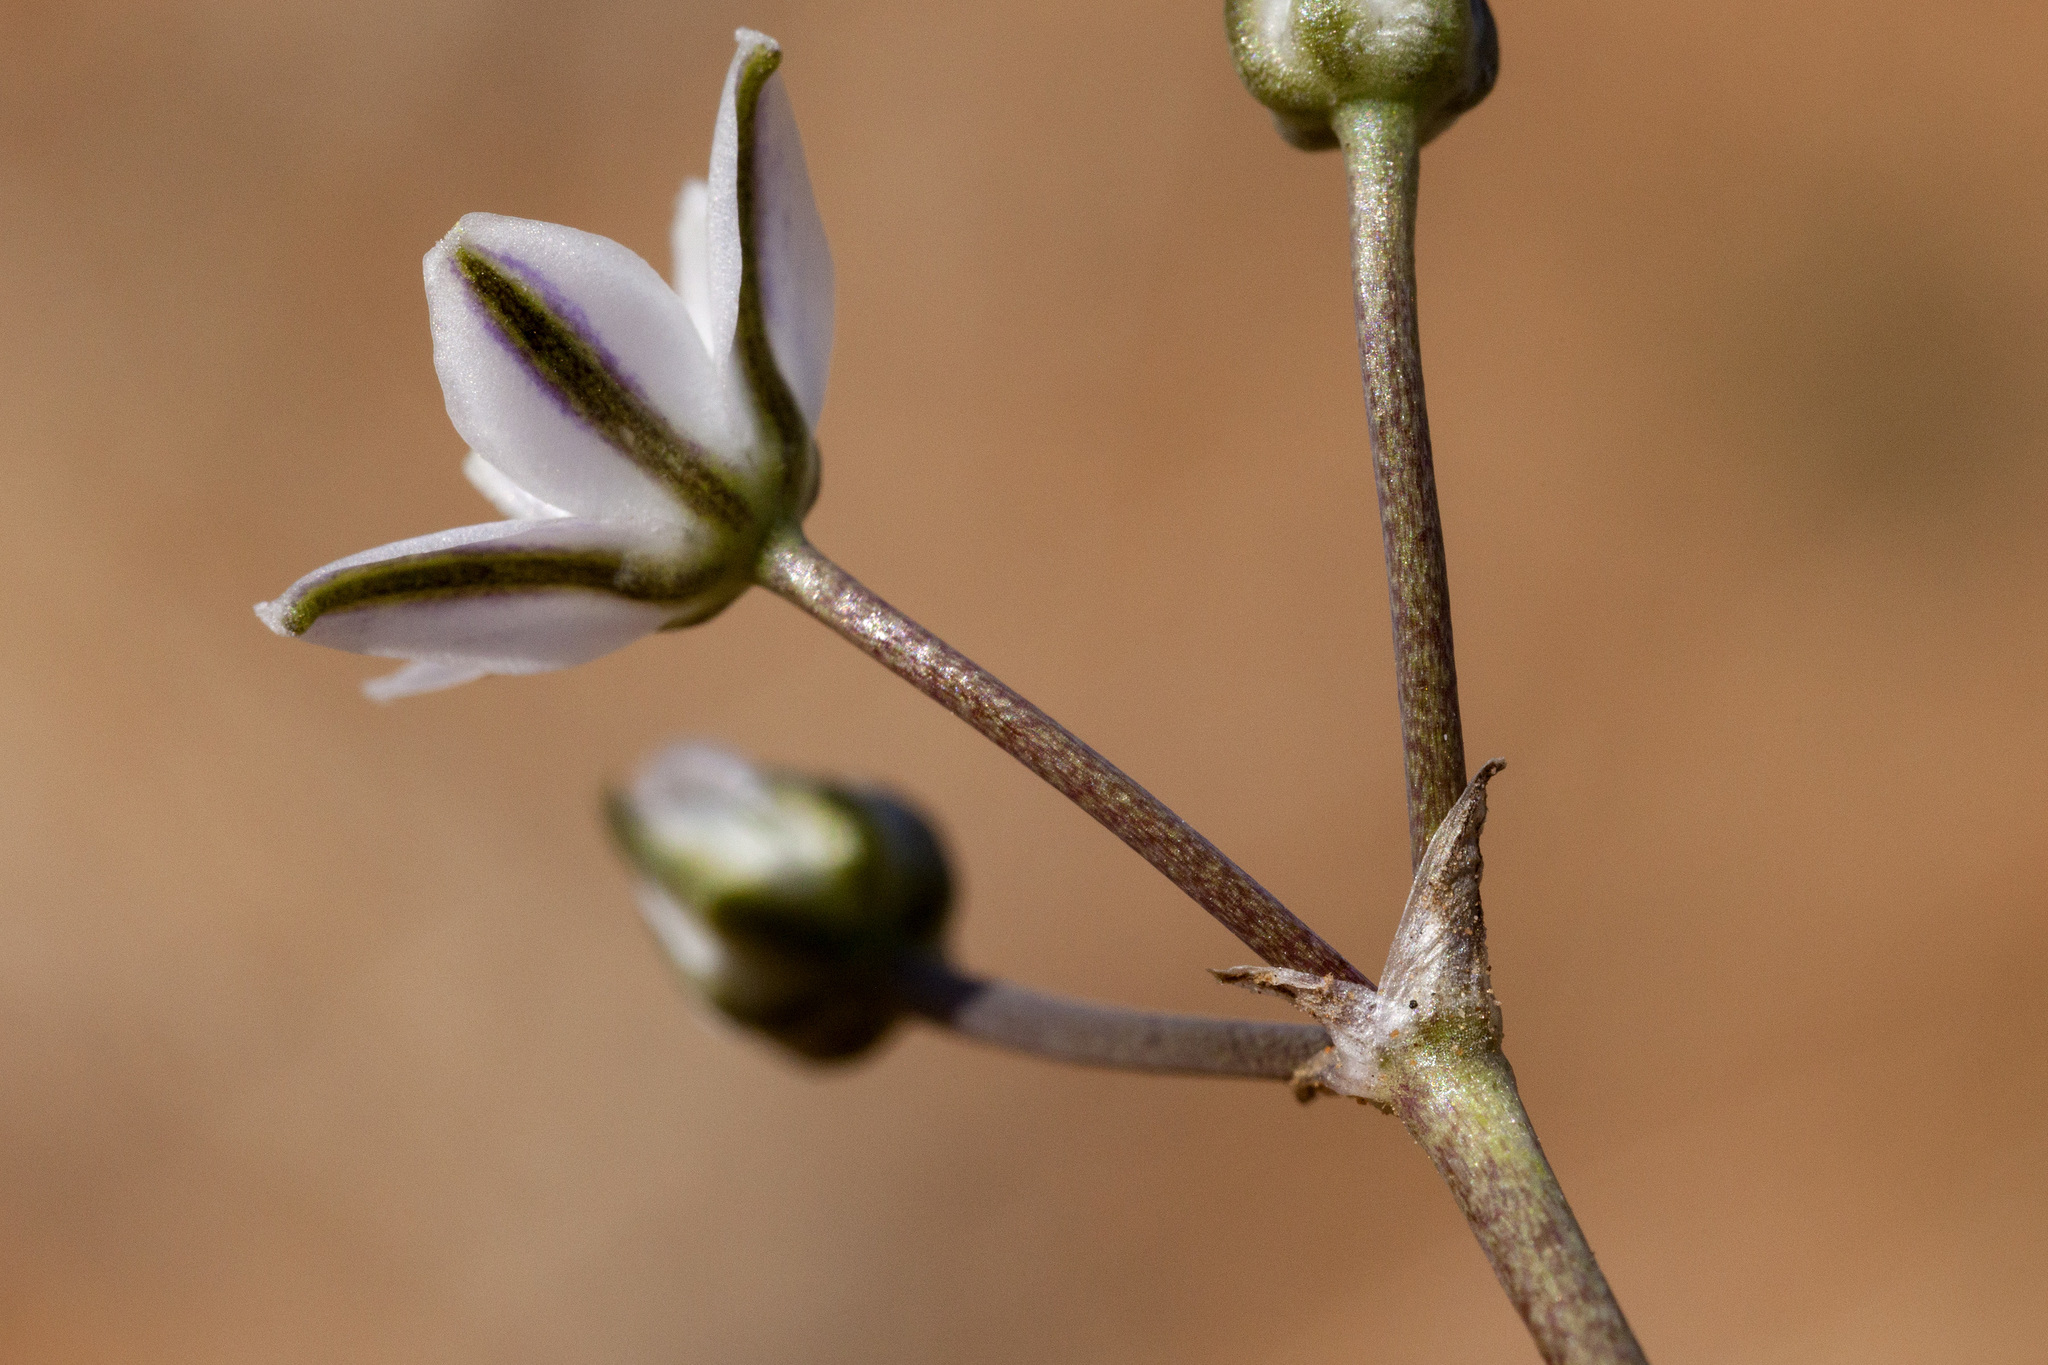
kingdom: Plantae
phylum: Tracheophyta
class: Liliopsida
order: Asparagales
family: Asparagaceae
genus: Muilla
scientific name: Muilla lordsburgana
